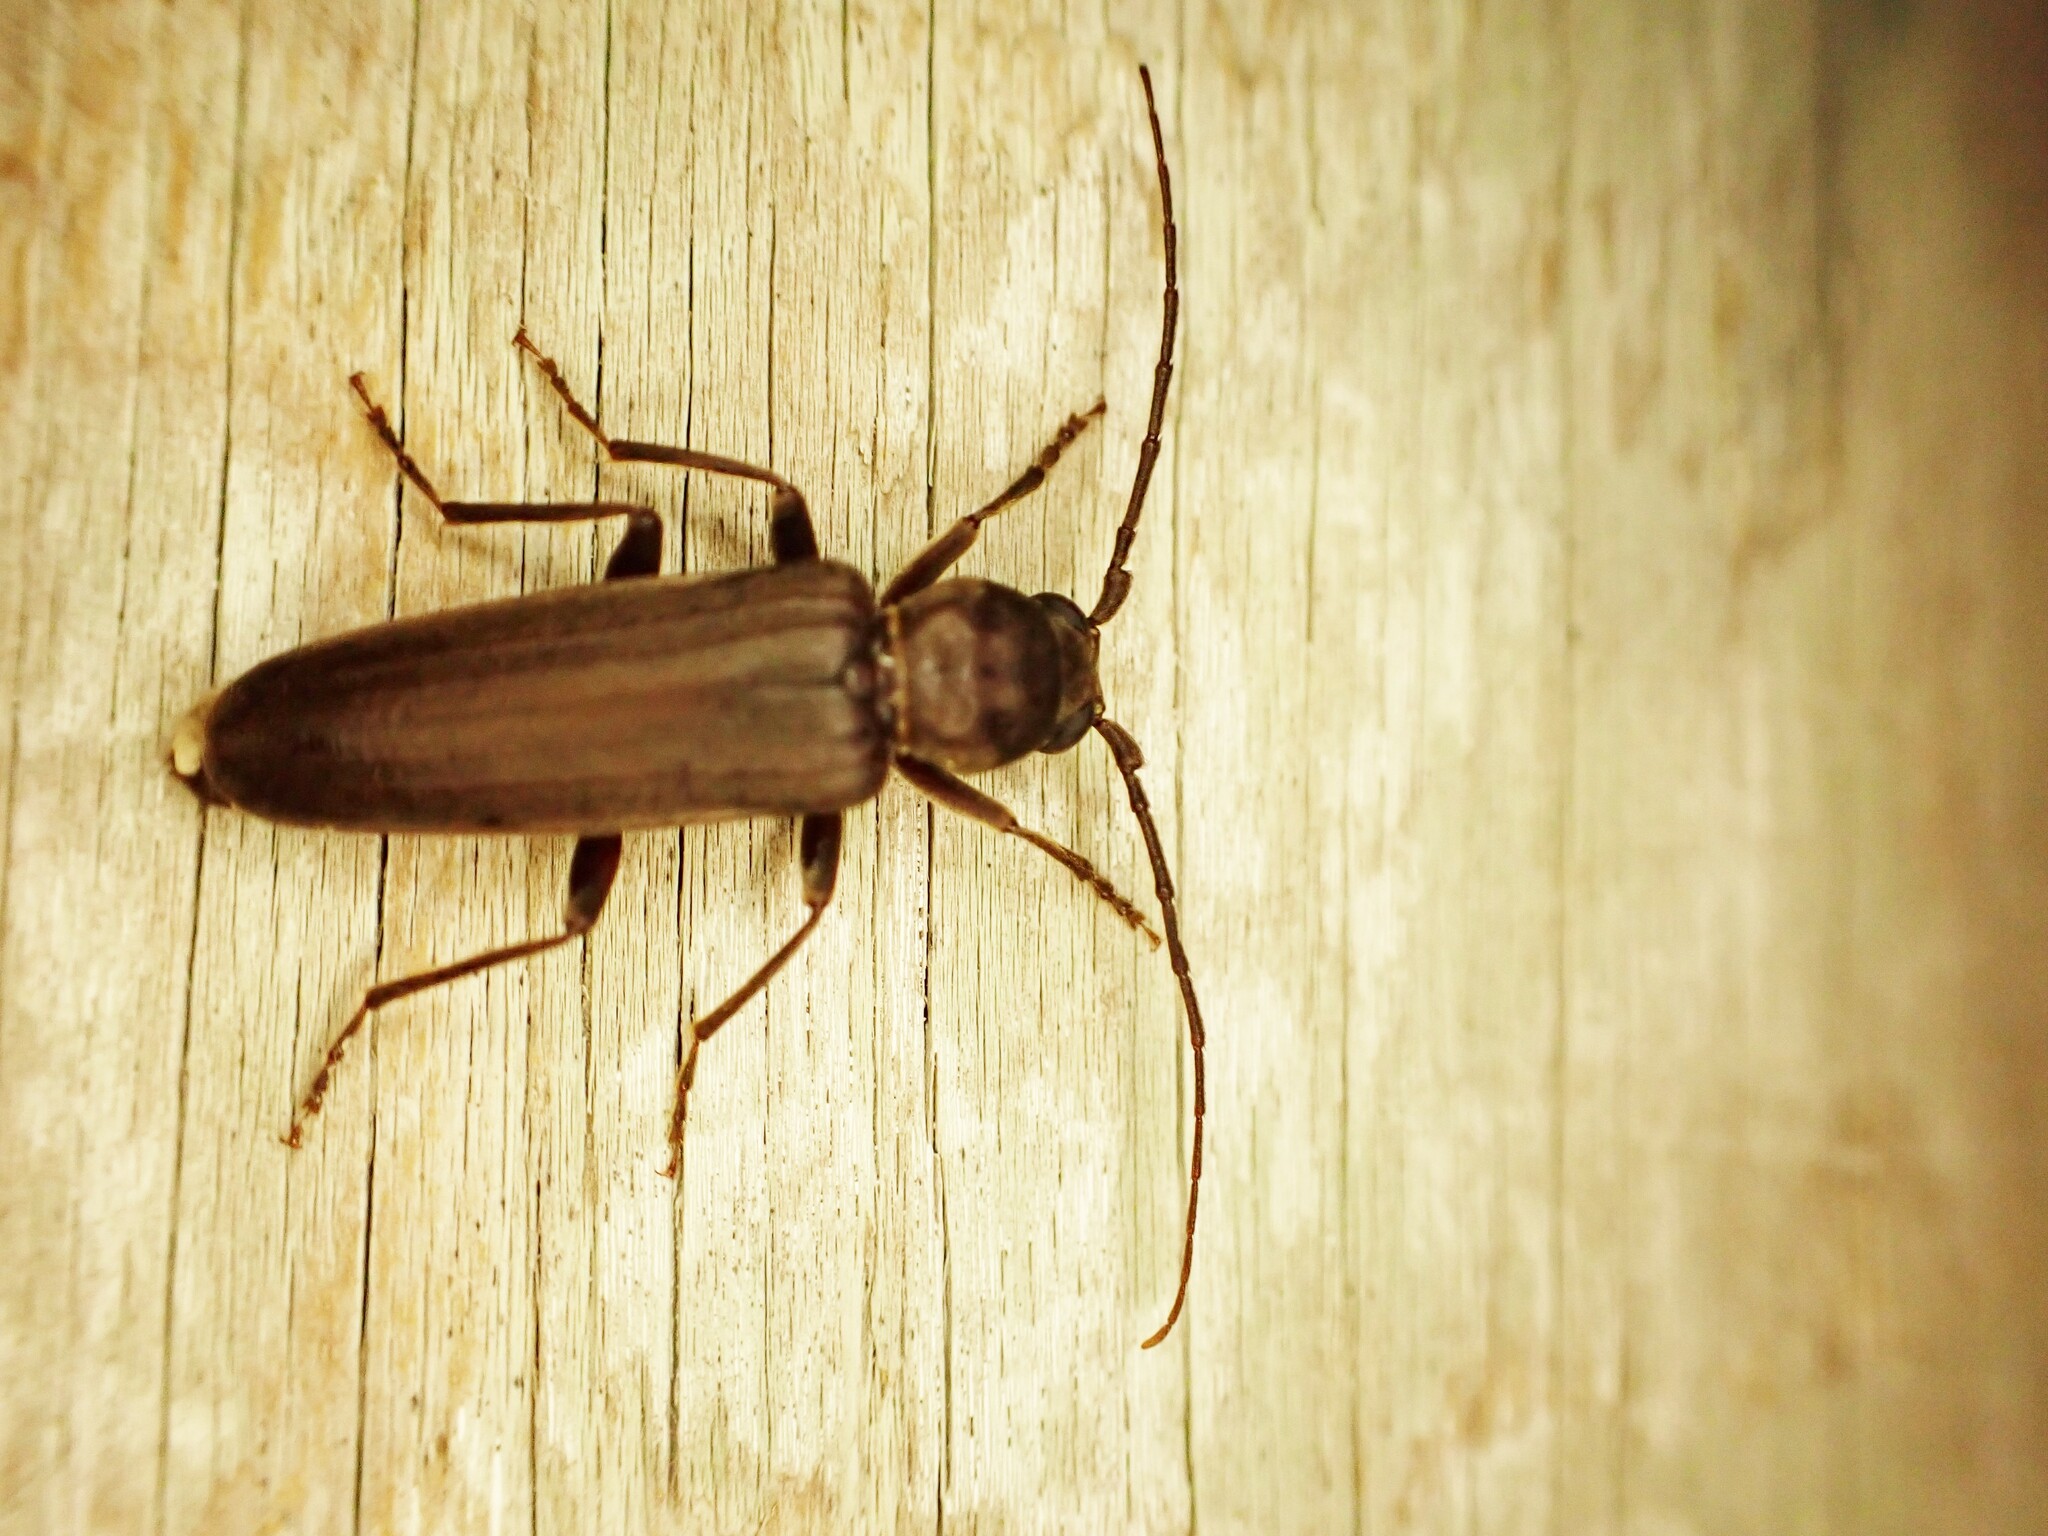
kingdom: Animalia
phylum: Arthropoda
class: Insecta
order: Coleoptera
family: Cerambycidae
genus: Arhopalus
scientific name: Arhopalus ferus
